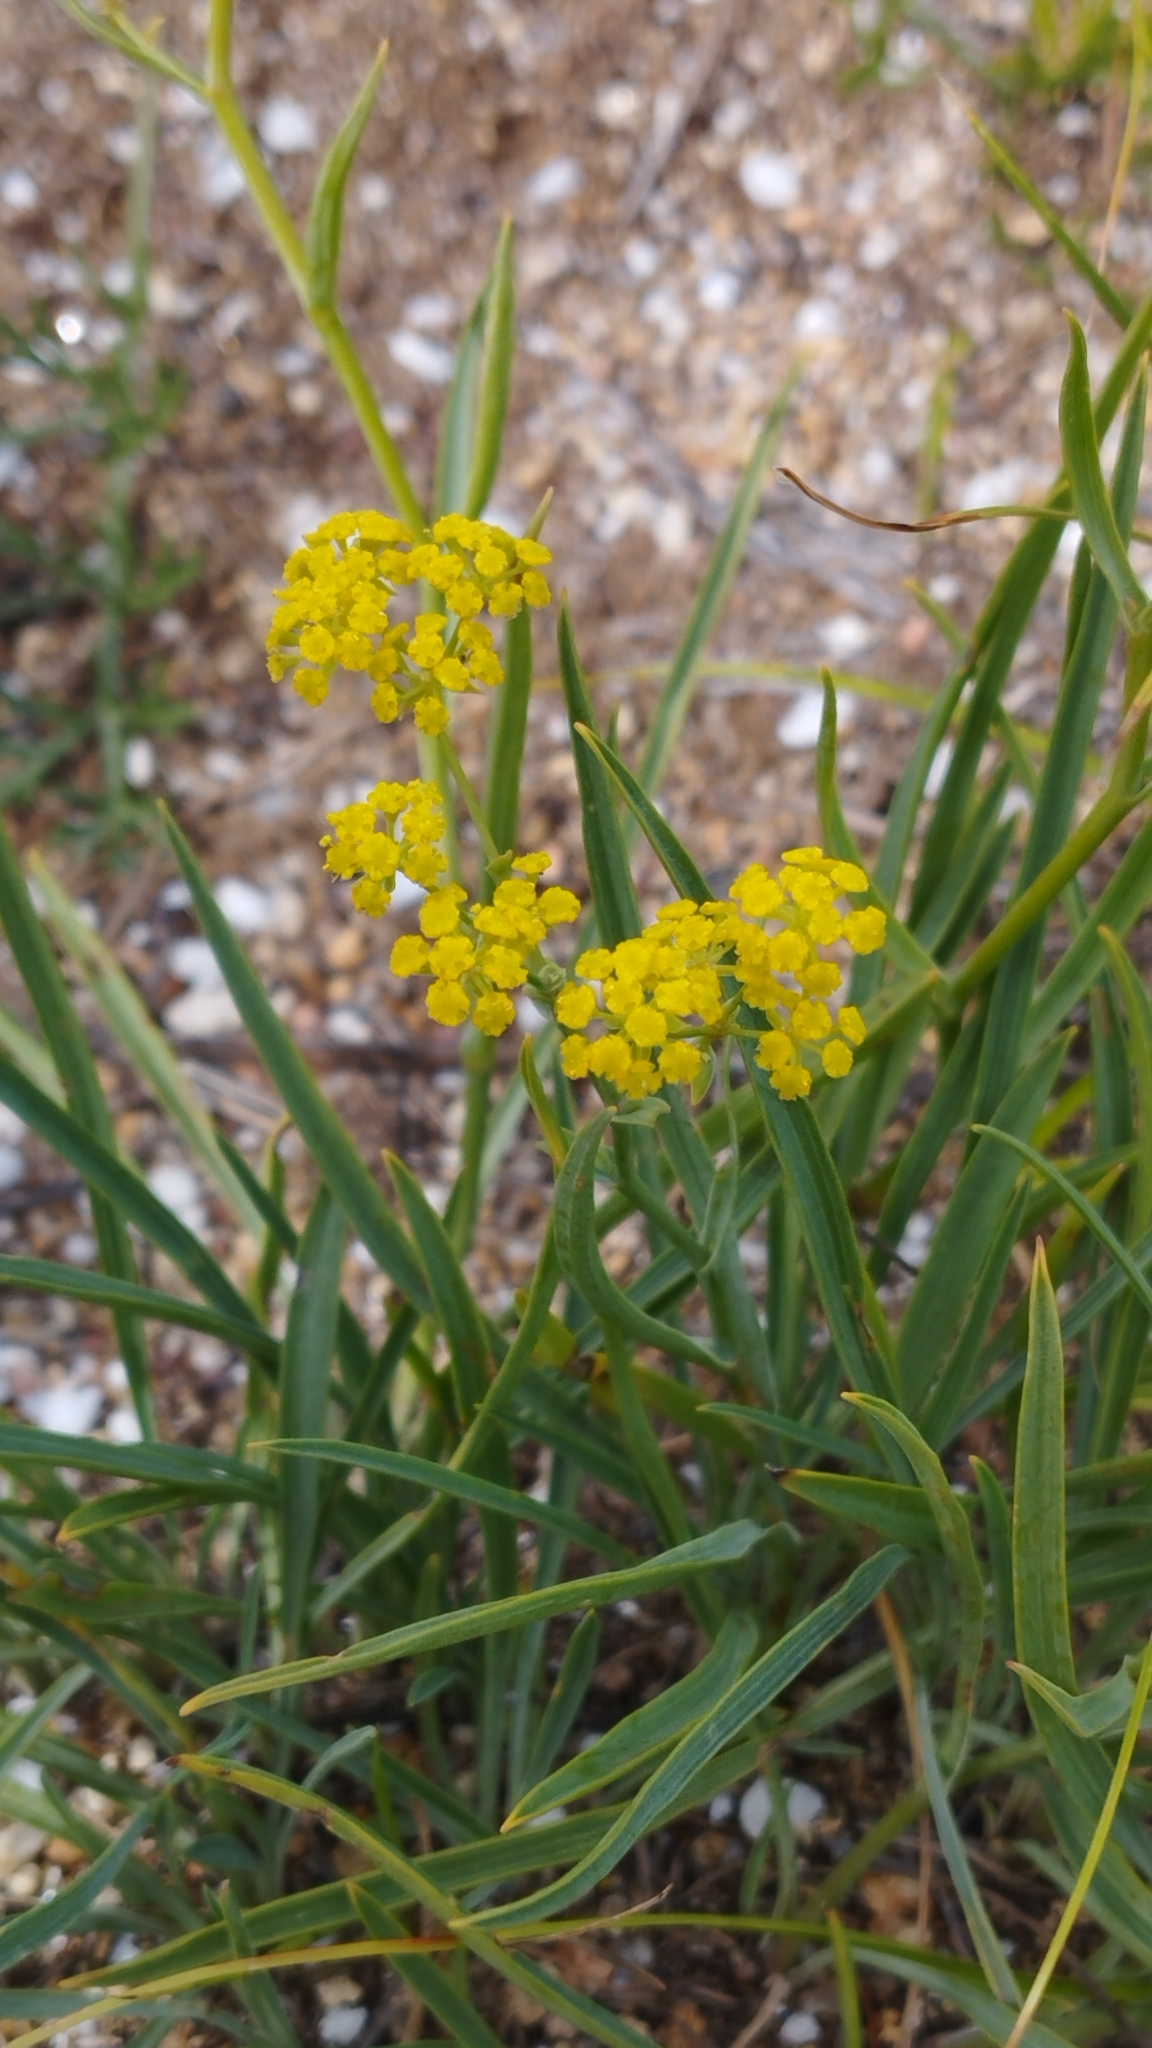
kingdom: Plantae
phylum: Tracheophyta
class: Magnoliopsida
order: Apiales
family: Apiaceae
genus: Bupleurum
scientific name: Bupleurum bicaule
